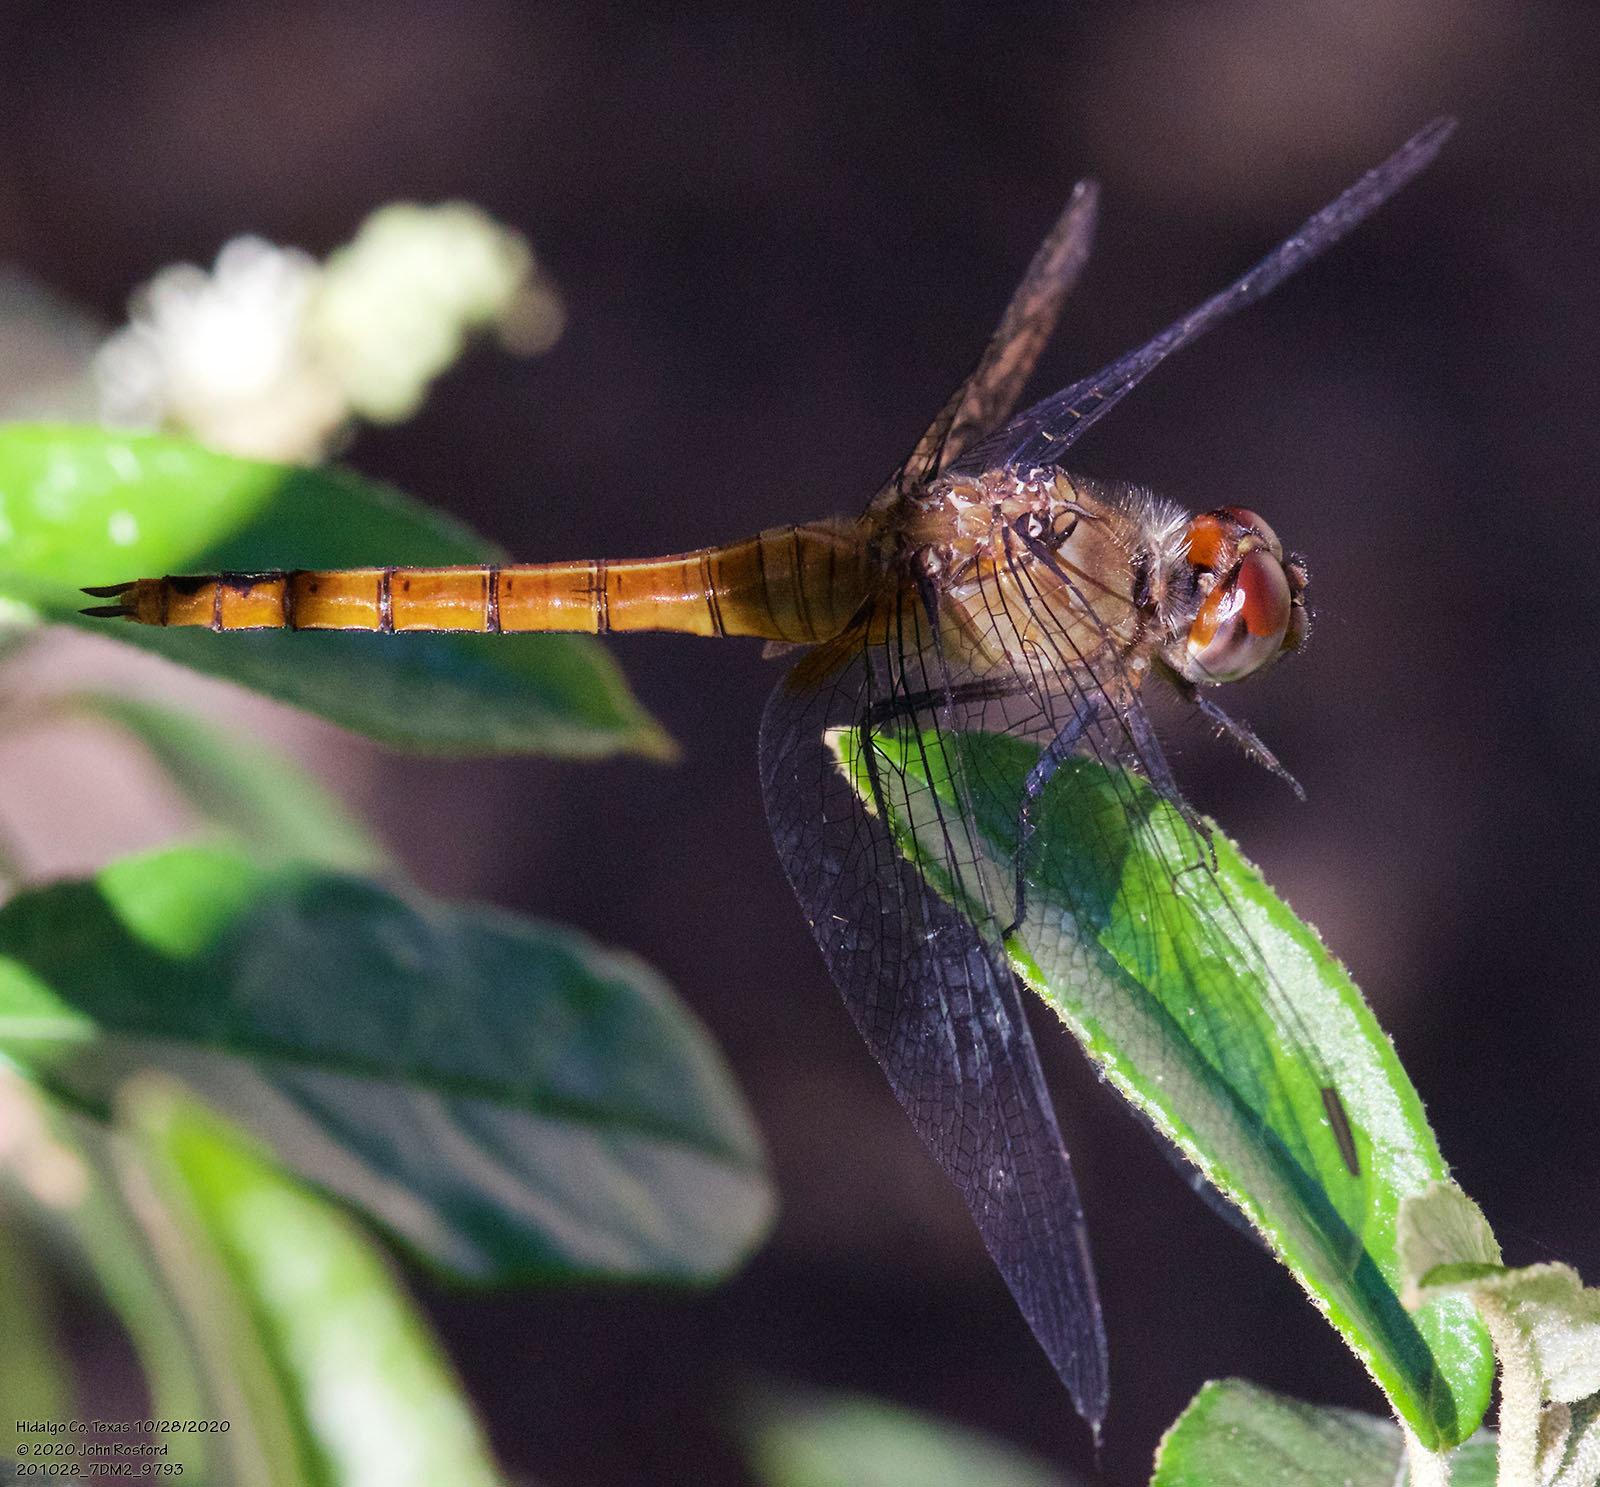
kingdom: Animalia
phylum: Arthropoda
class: Insecta
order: Odonata
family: Libellulidae
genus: Brachymesia
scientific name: Brachymesia furcata
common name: Red-taled pennant
